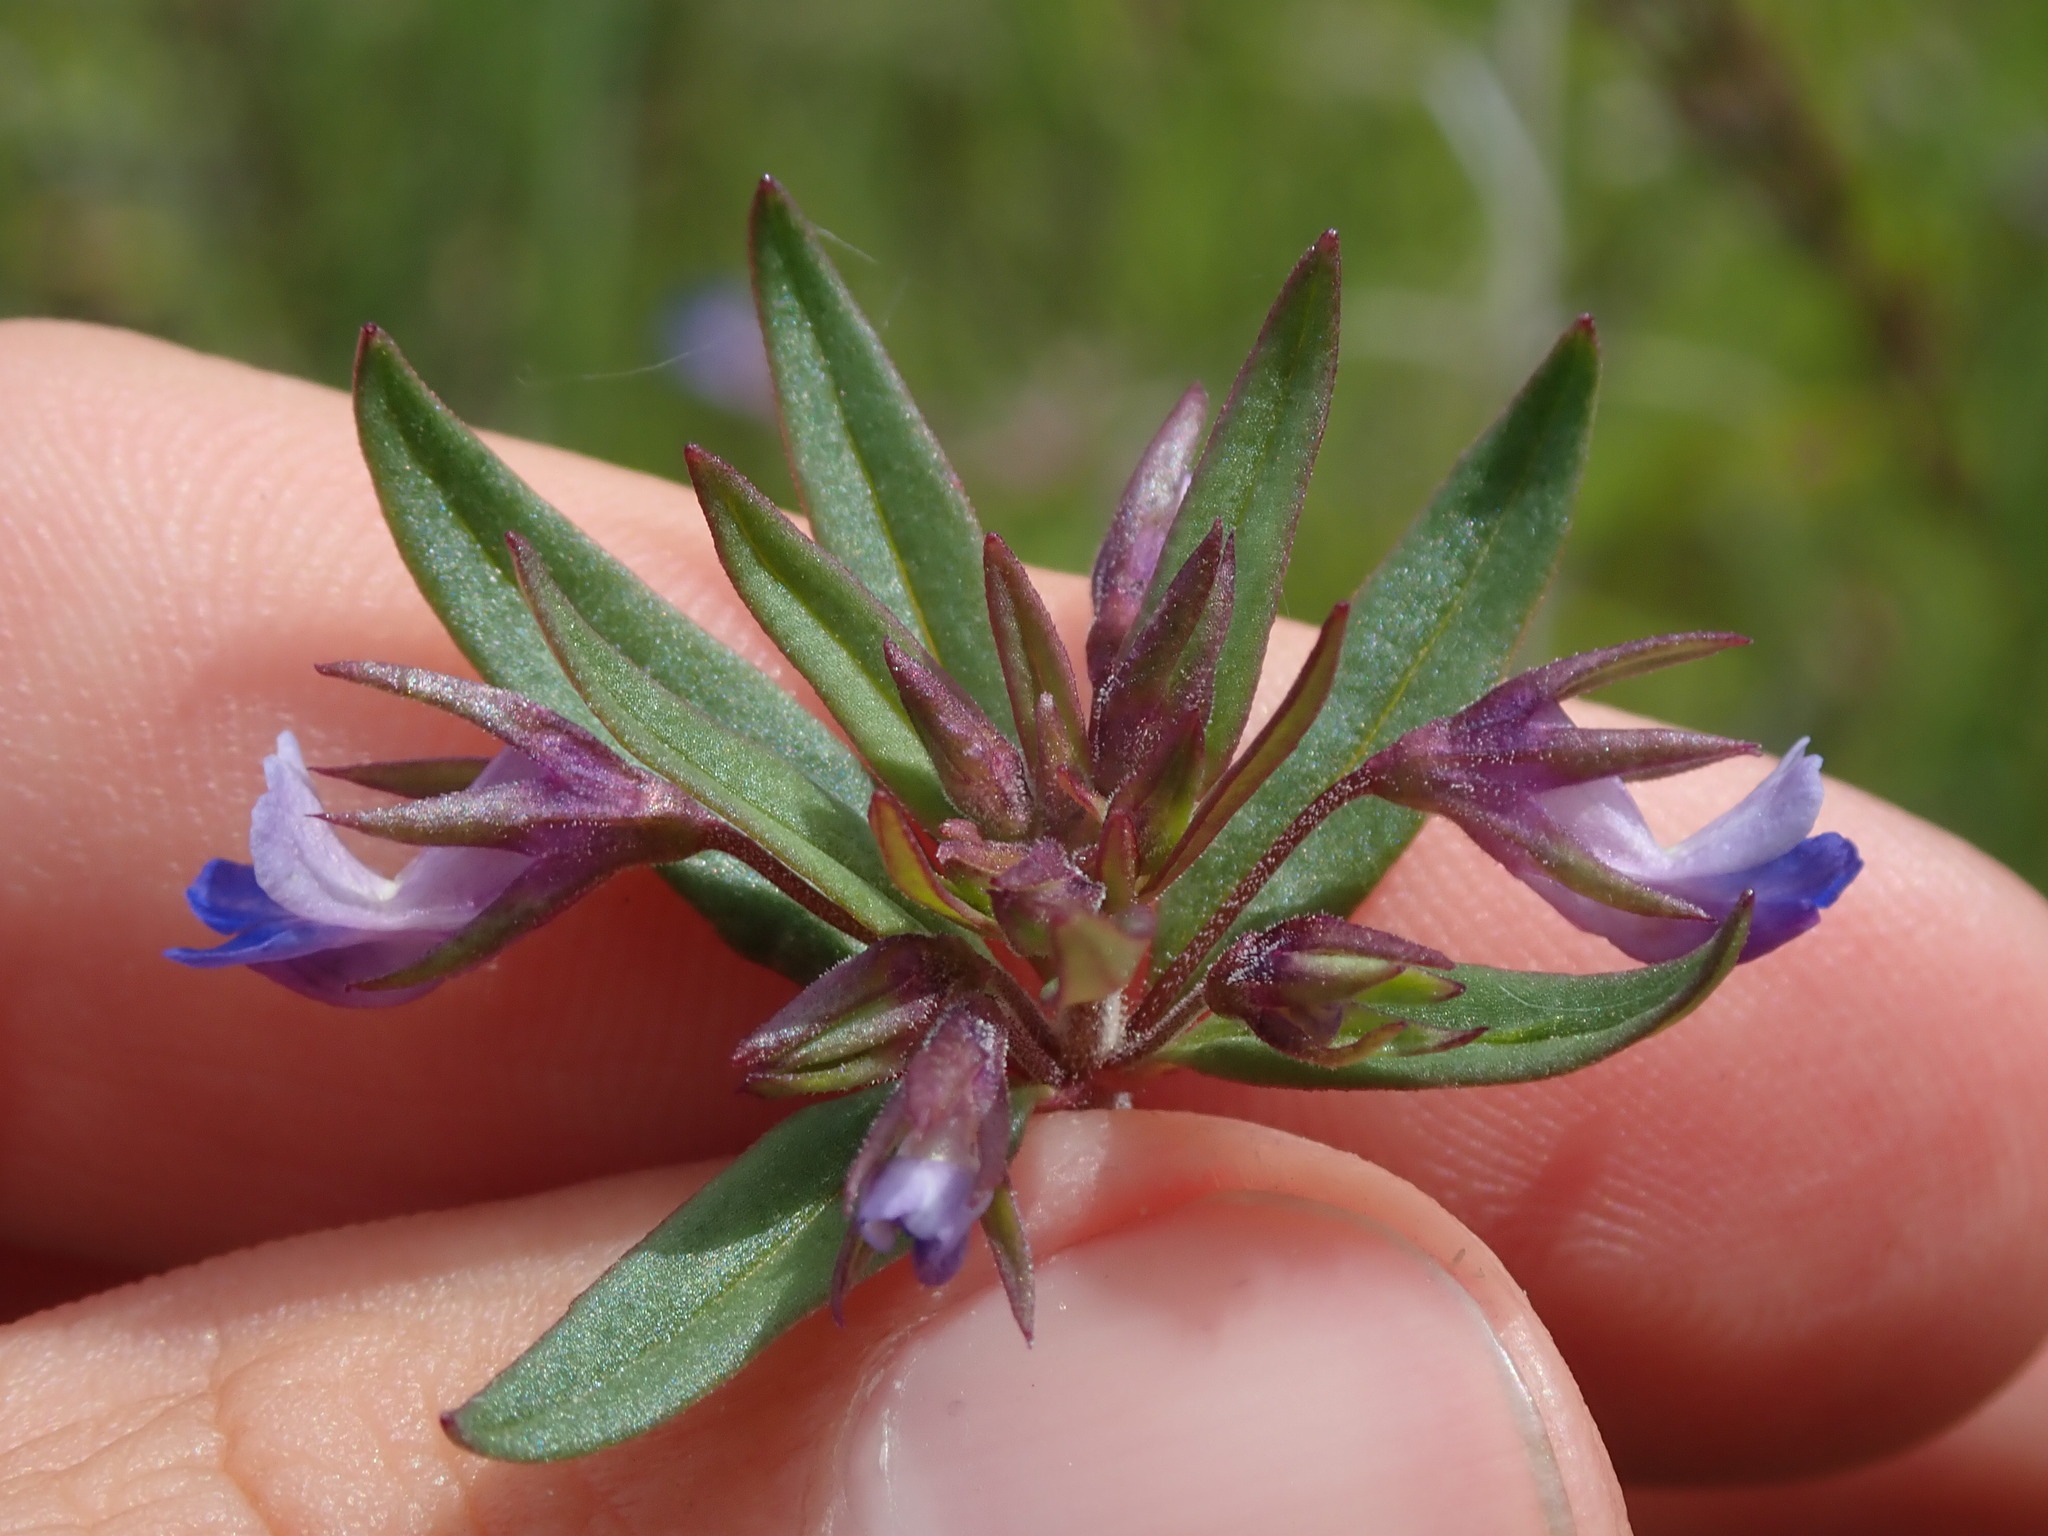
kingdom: Plantae
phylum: Tracheophyta
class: Magnoliopsida
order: Lamiales
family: Plantaginaceae
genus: Collinsia
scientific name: Collinsia parviflora
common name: Blue-lips
